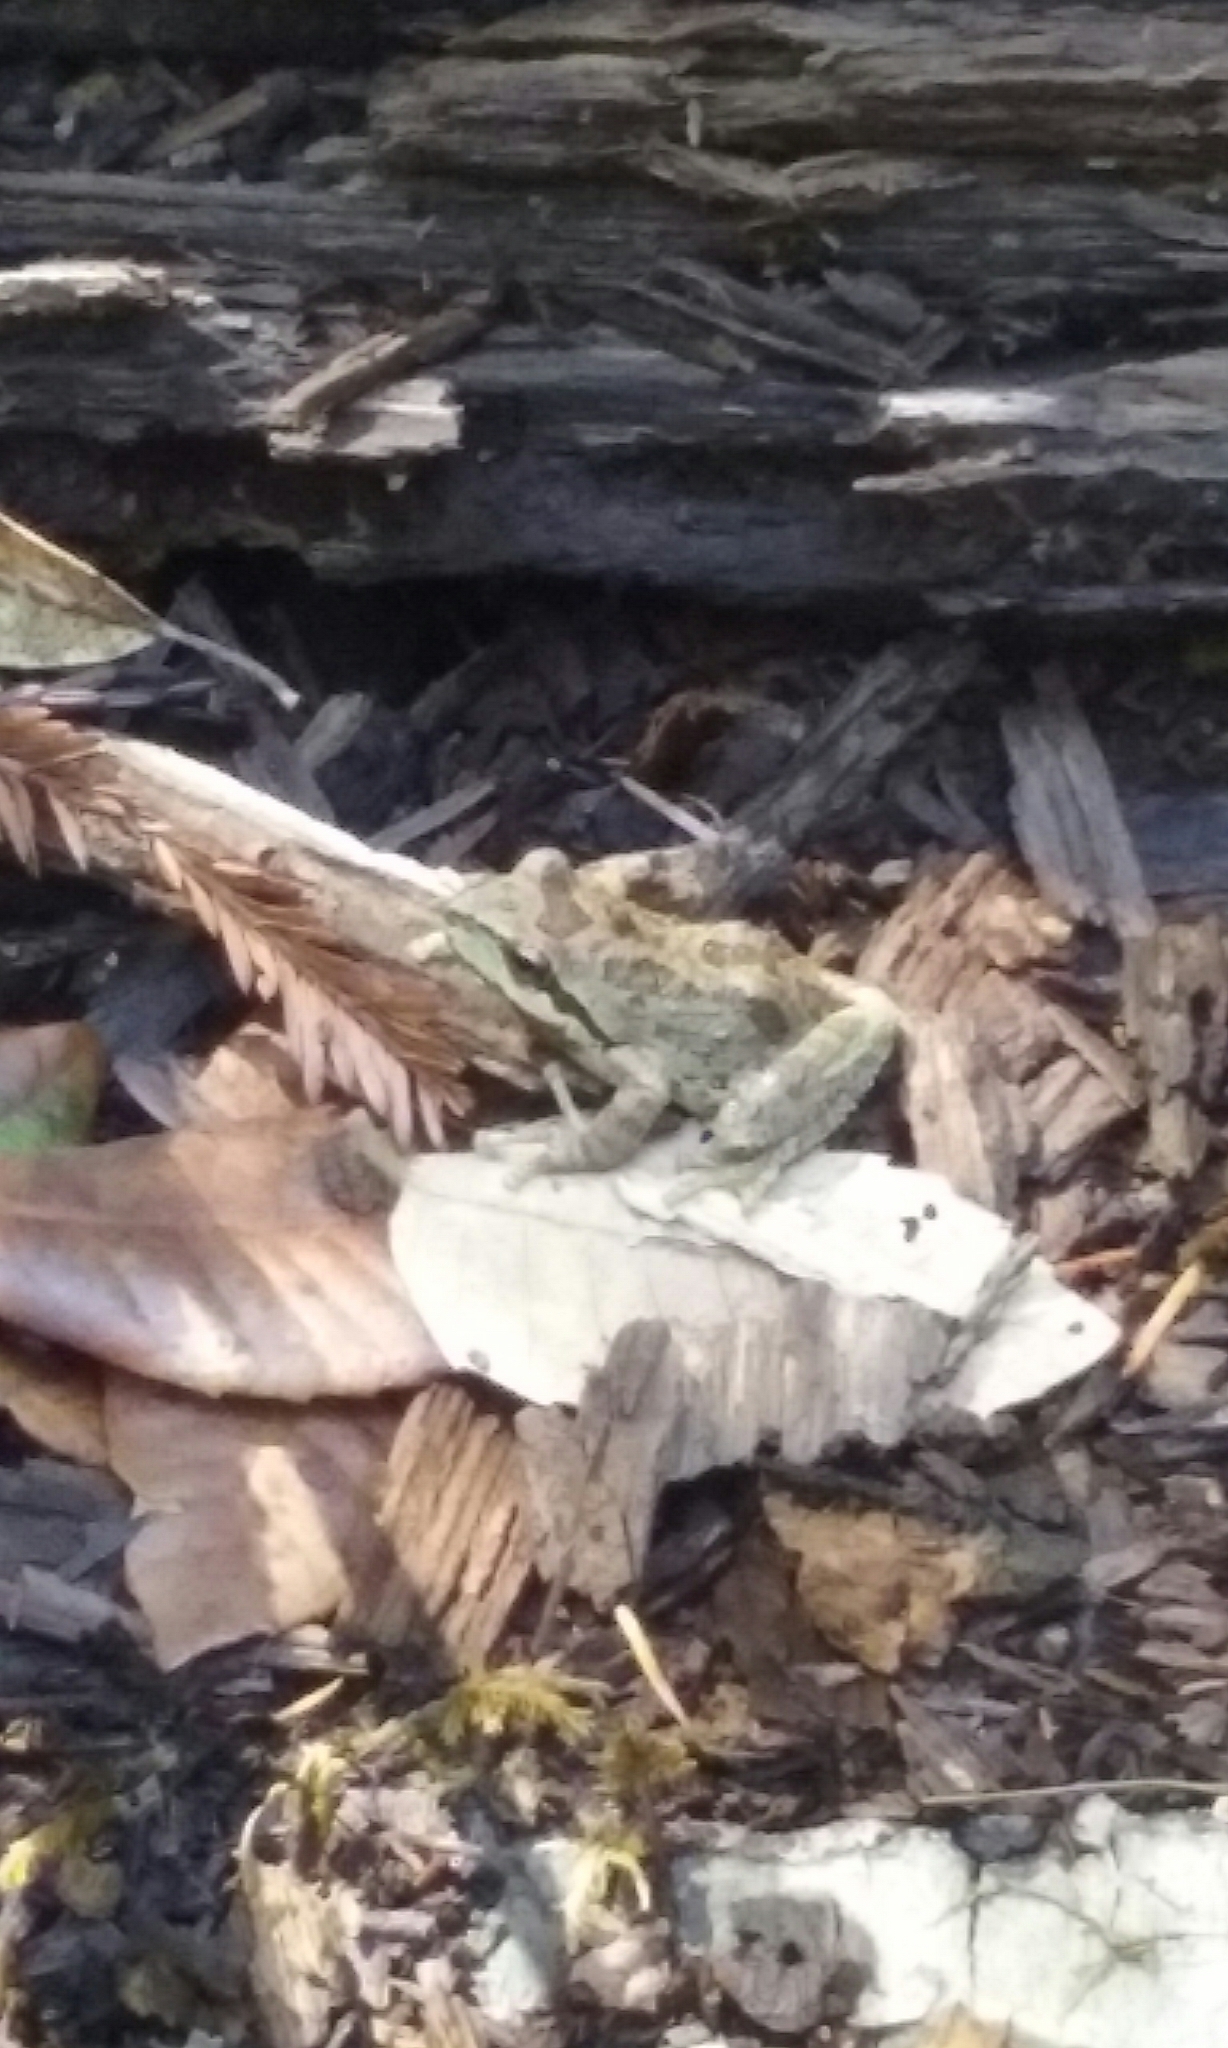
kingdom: Animalia
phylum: Chordata
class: Amphibia
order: Anura
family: Hylidae
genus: Pseudacris
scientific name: Pseudacris regilla
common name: Pacific chorus frog
